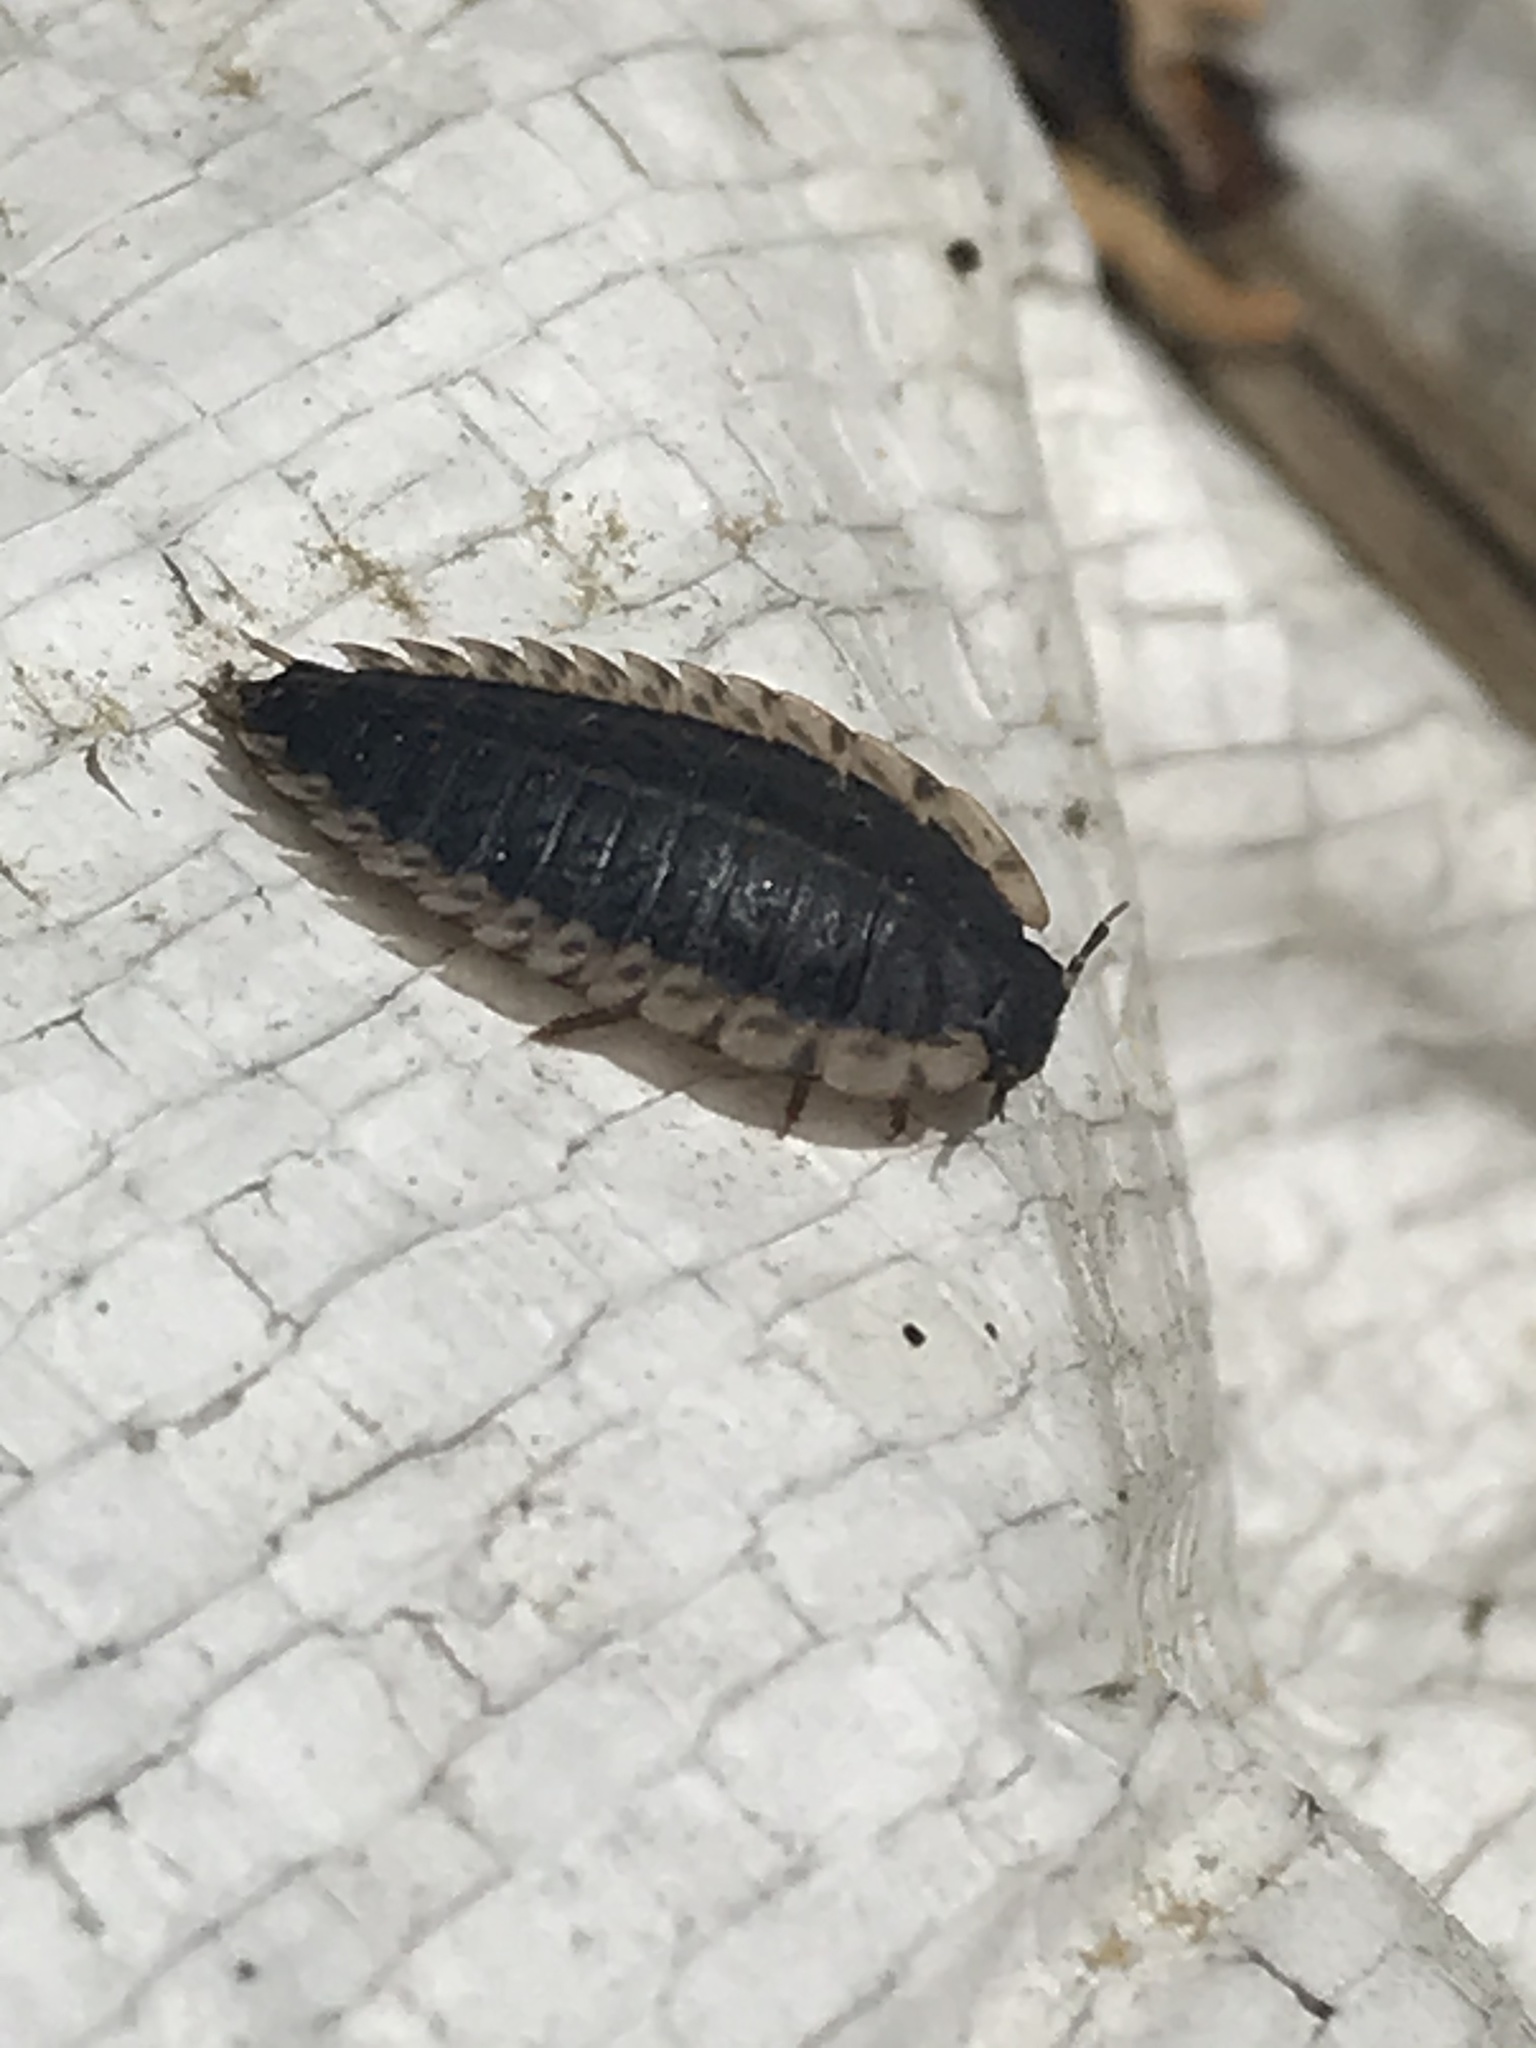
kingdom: Animalia
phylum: Arthropoda
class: Insecta
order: Coleoptera
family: Staphylinidae
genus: Oiceoptoma
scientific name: Oiceoptoma noveboracense
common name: Margined carrion beetle
